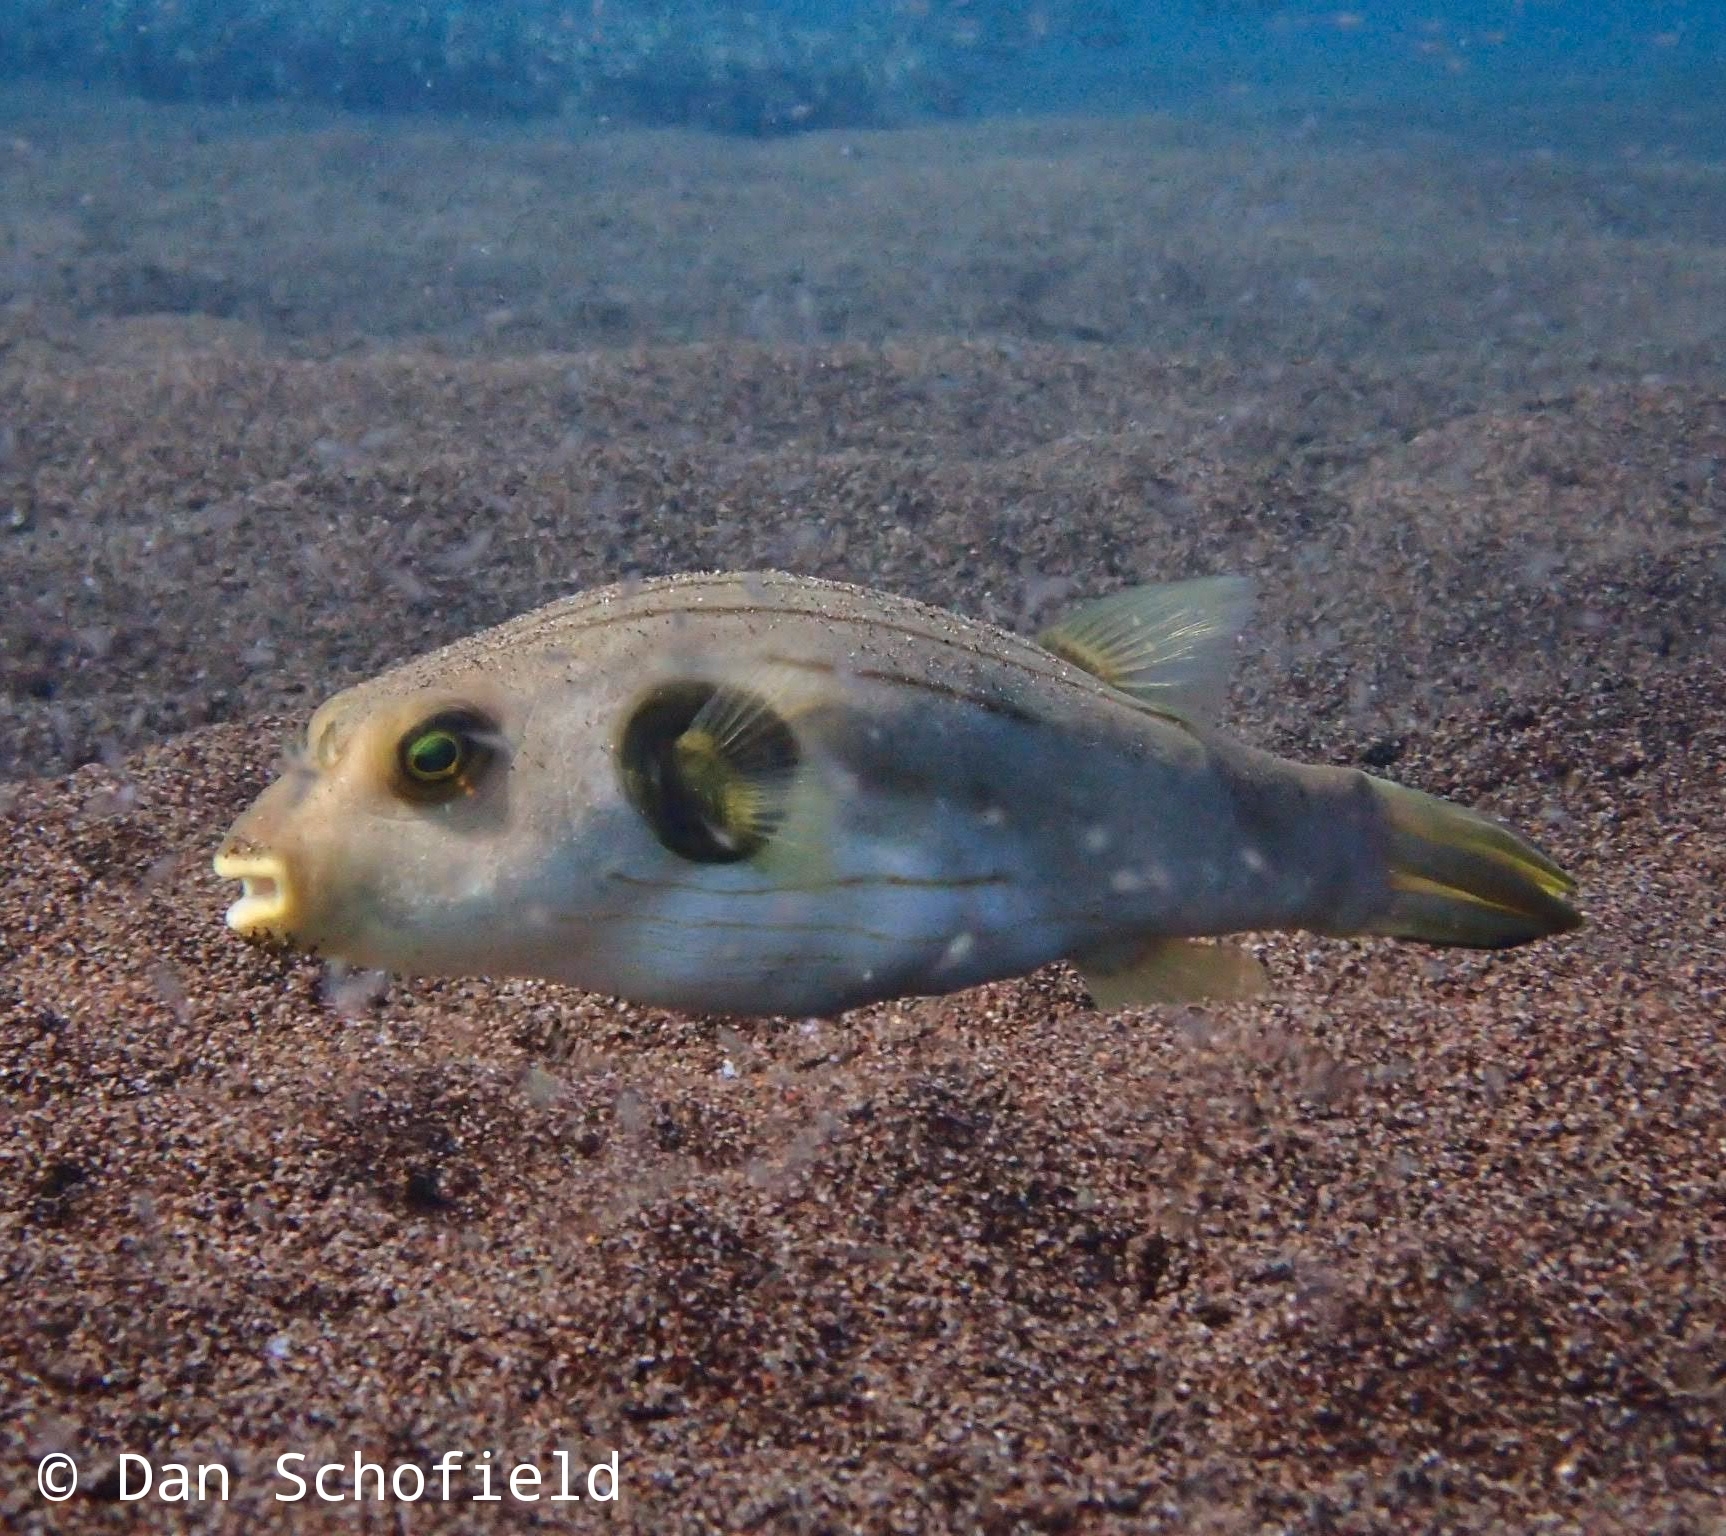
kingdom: Animalia
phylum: Chordata
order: Tetraodontiformes
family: Tetraodontidae
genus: Arothron
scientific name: Arothron manilensis
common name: Narrow-lined puffer
